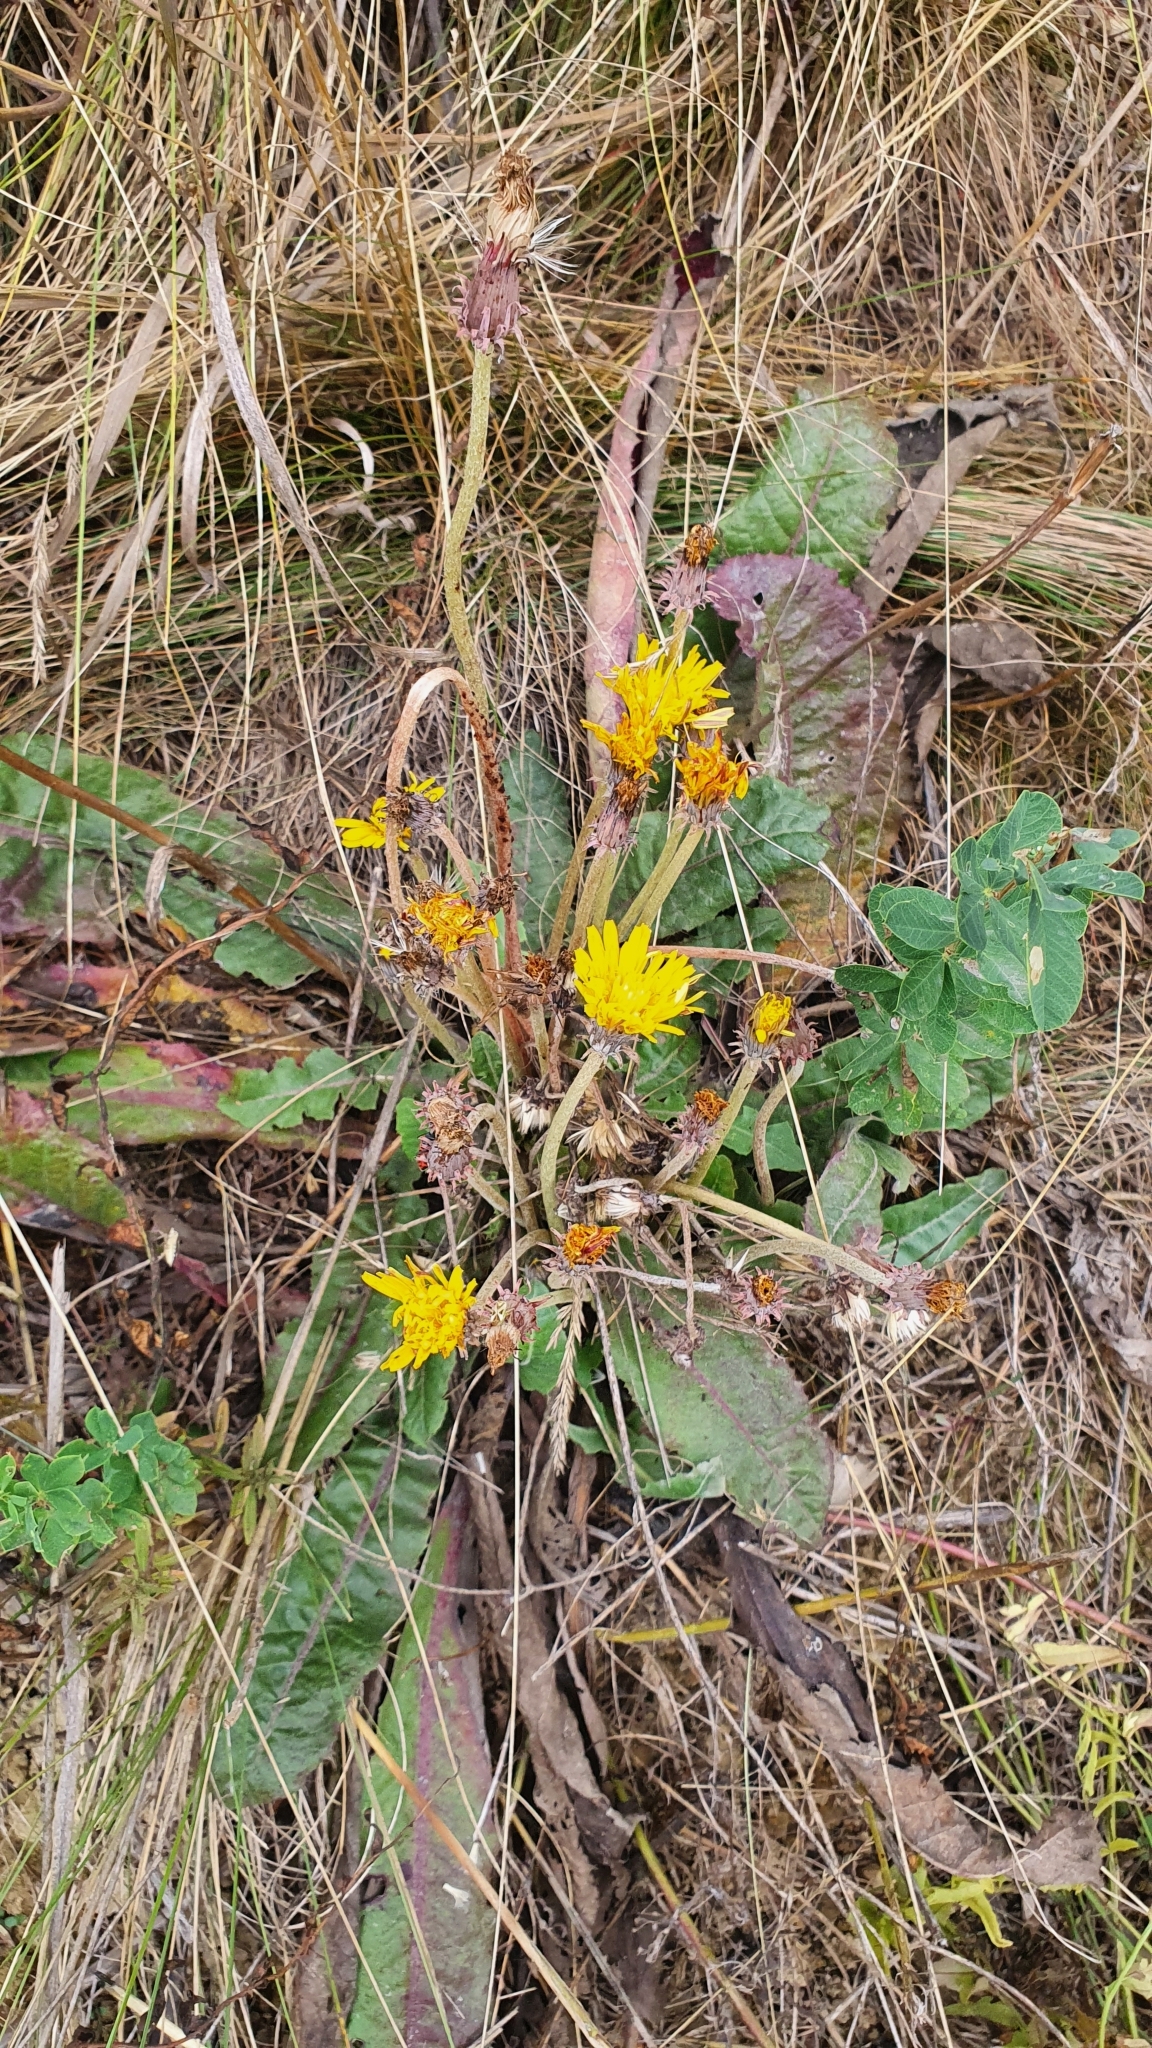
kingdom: Plantae
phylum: Tracheophyta
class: Magnoliopsida
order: Asterales
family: Asteraceae
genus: Taraxacum
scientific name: Taraxacum serotinum
